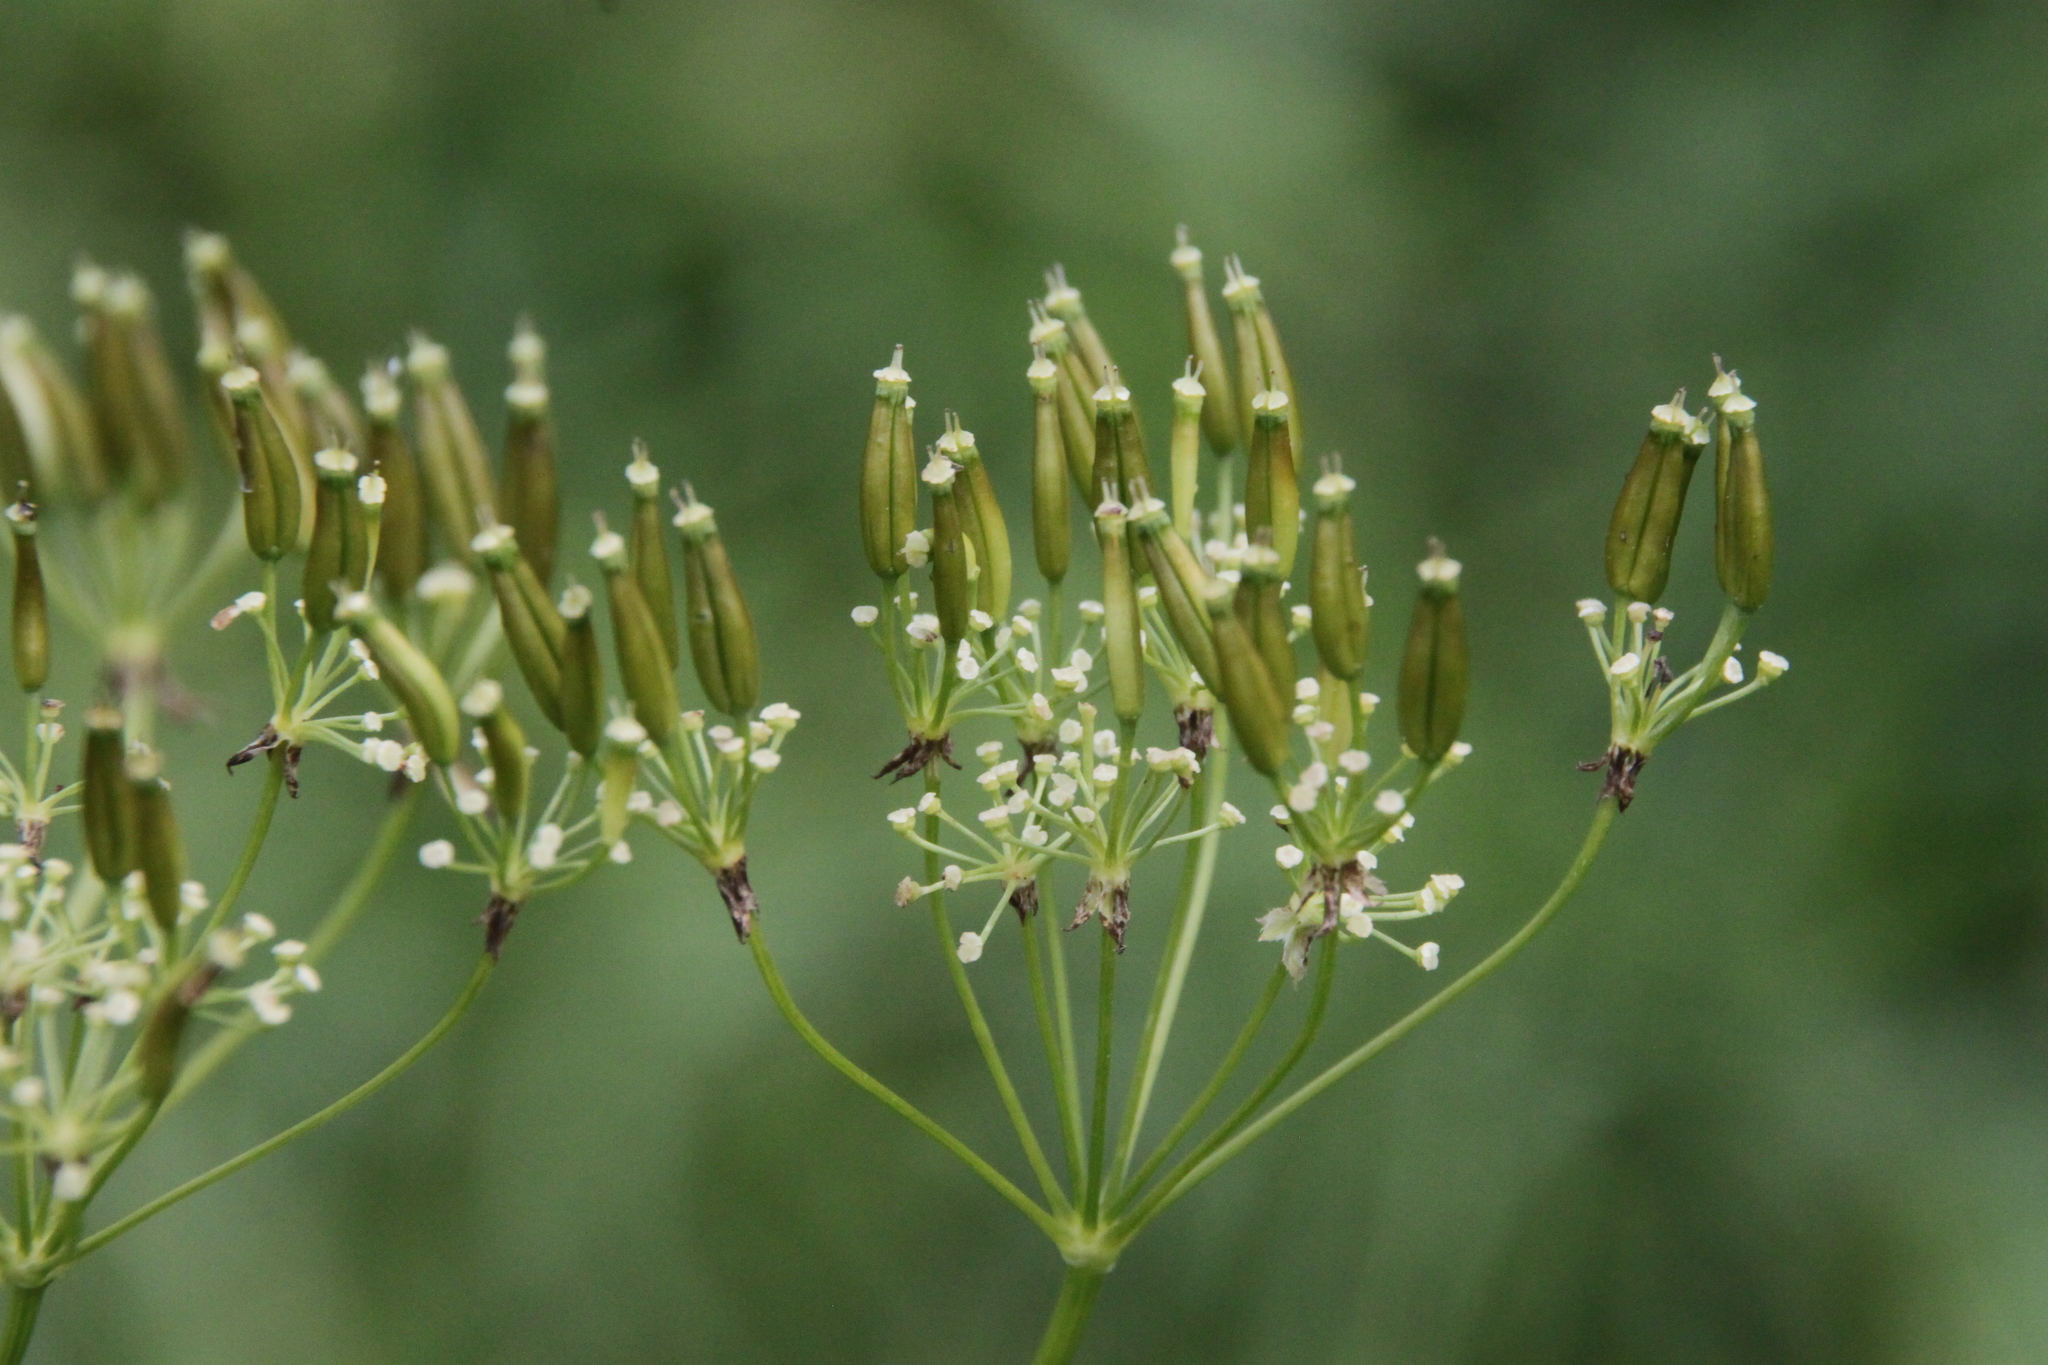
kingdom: Plantae
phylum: Tracheophyta
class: Magnoliopsida
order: Apiales
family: Apiaceae
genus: Anthriscus
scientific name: Anthriscus sylvestris
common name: Cow parsley
